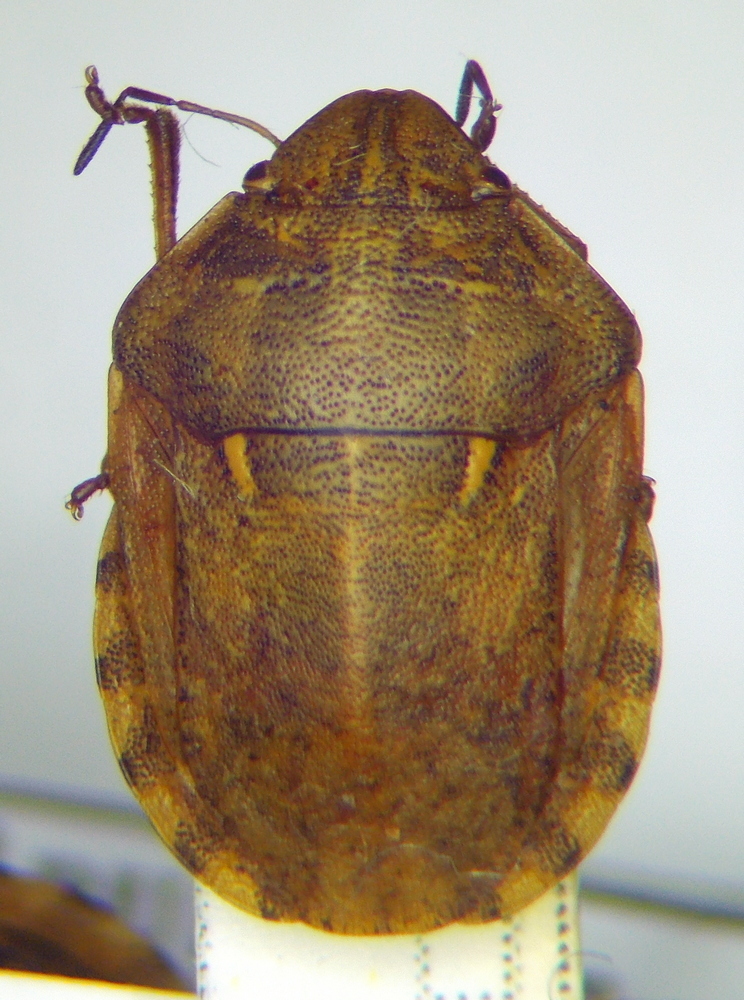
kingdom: Animalia
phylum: Arthropoda
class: Insecta
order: Hemiptera
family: Scutelleridae
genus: Eurygaster
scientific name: Eurygaster maura
